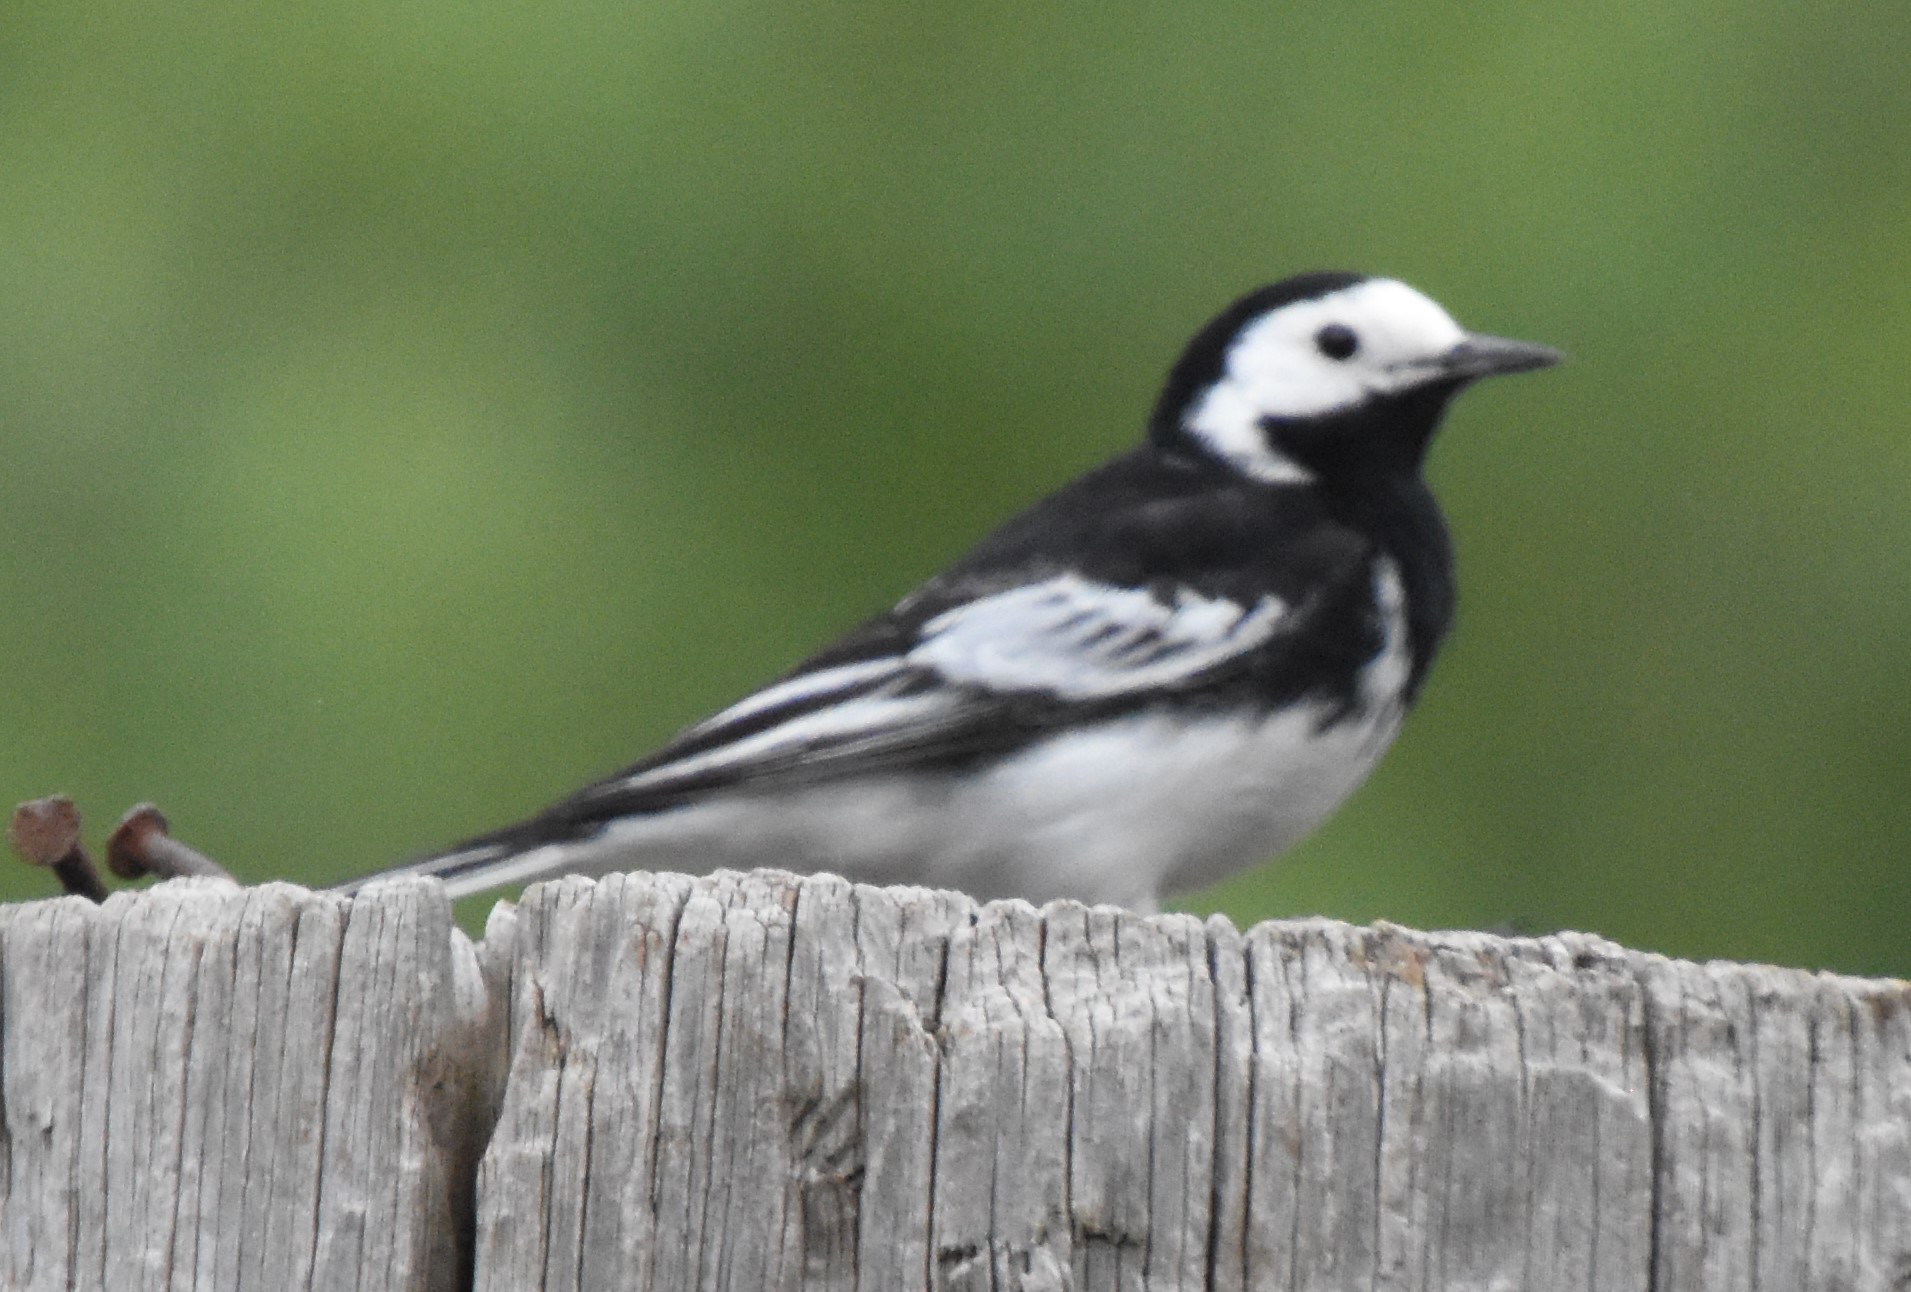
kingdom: Animalia
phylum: Chordata
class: Aves
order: Passeriformes
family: Motacillidae
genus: Motacilla
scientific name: Motacilla alba
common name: White wagtail
